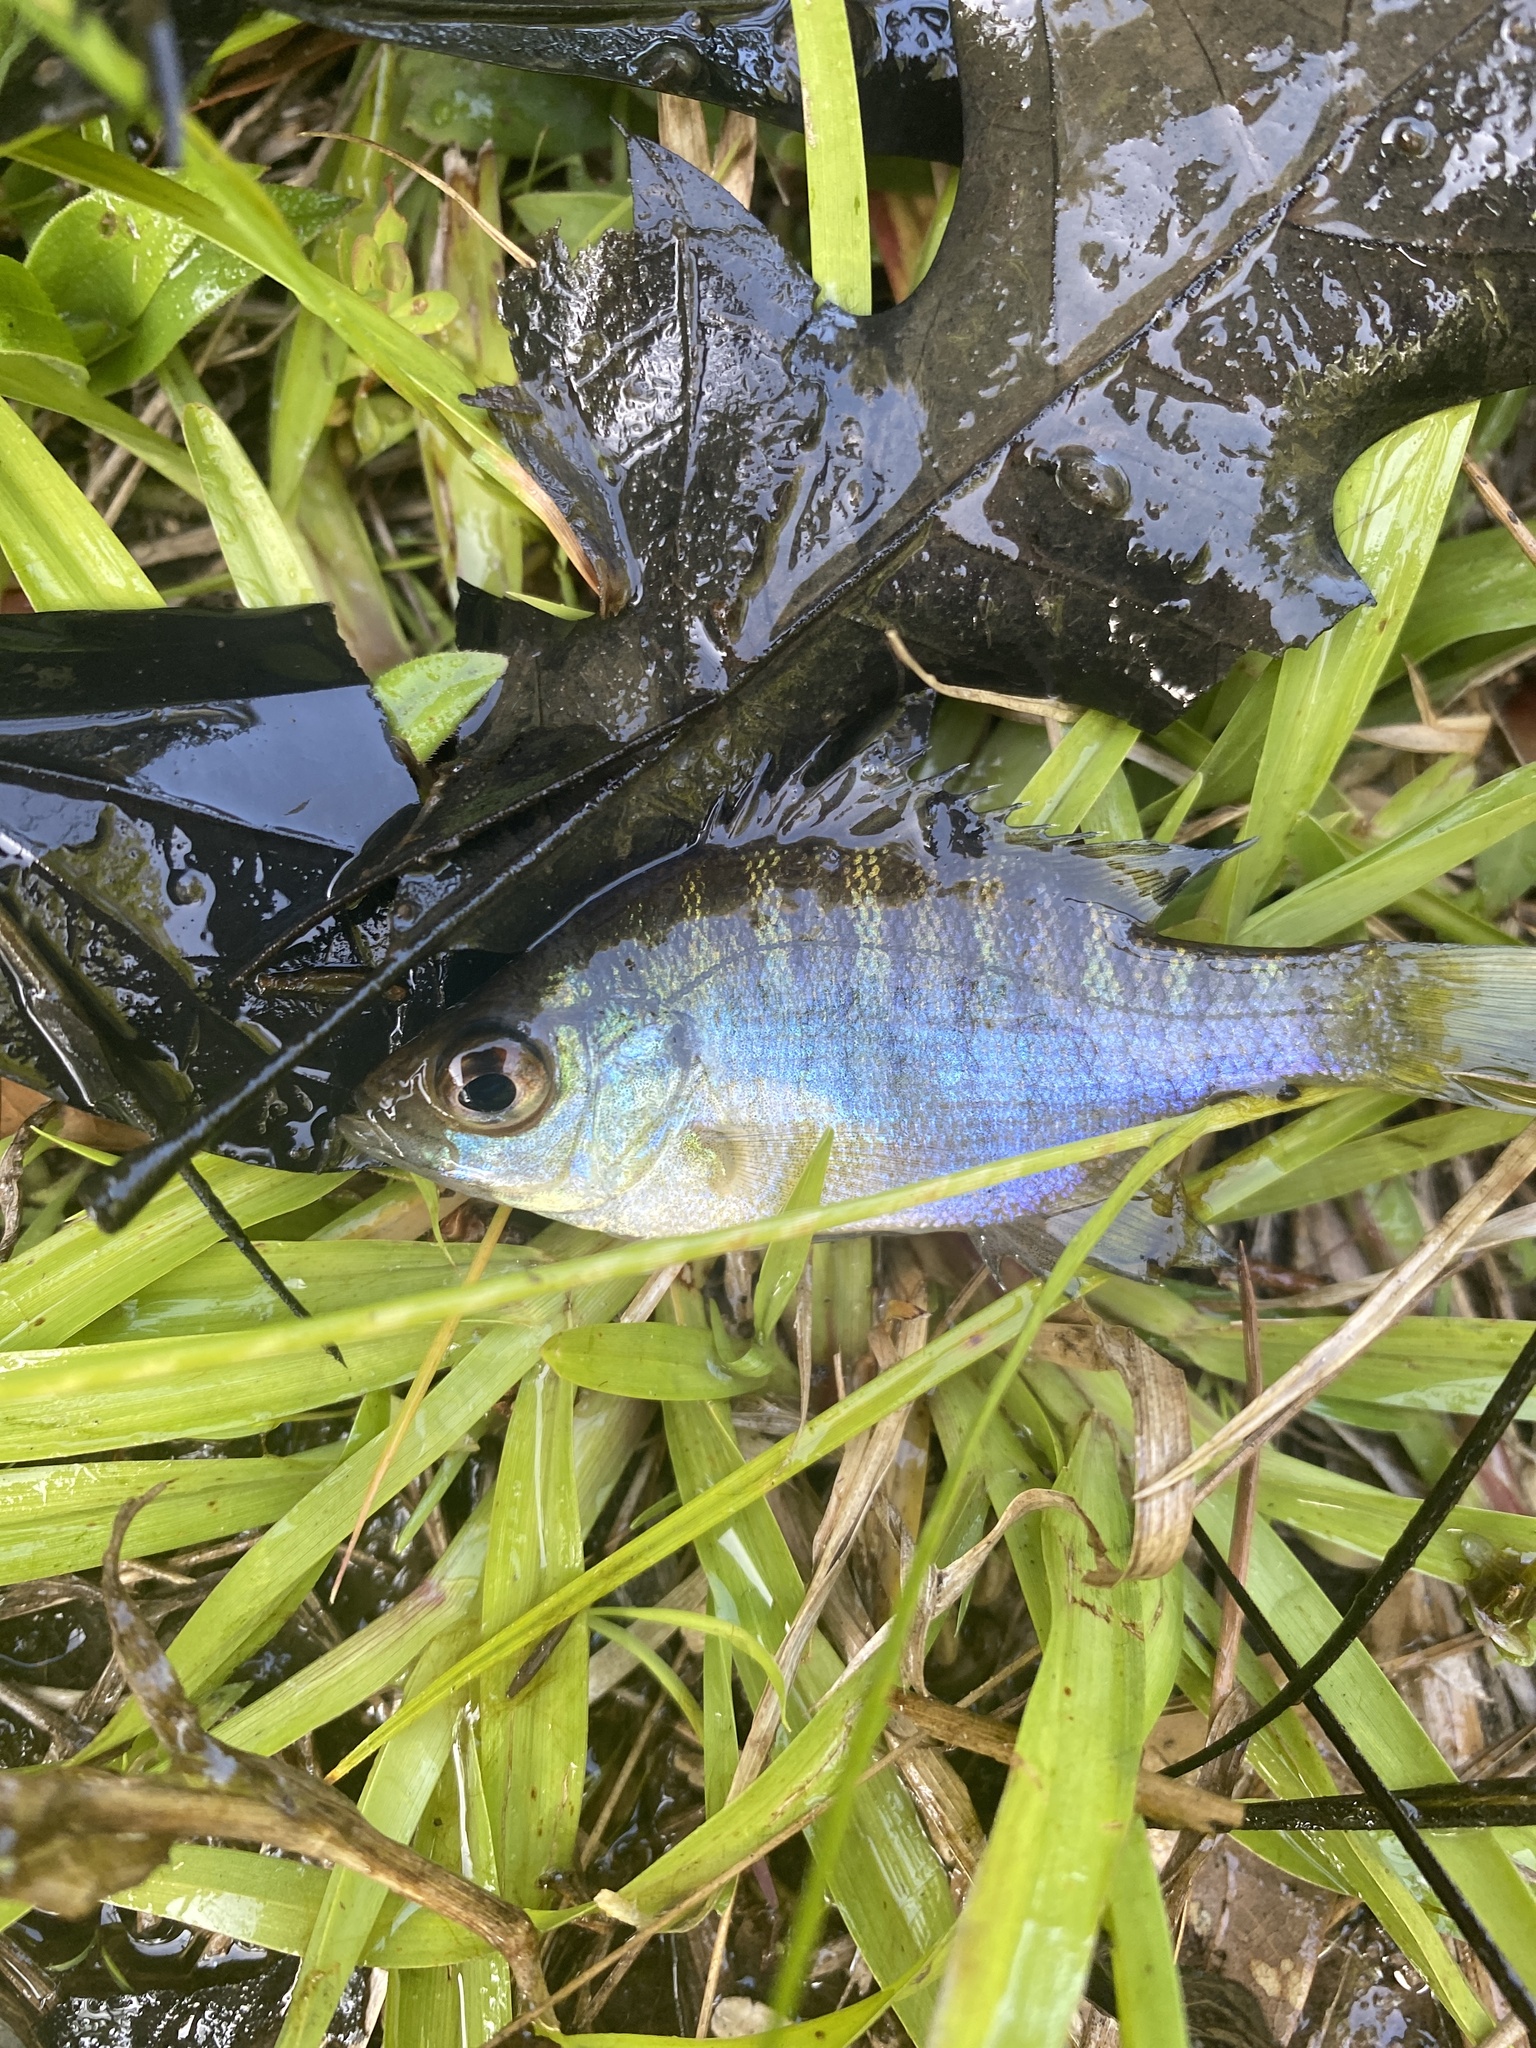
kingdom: Animalia
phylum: Chordata
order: Perciformes
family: Centrarchidae
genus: Lepomis
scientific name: Lepomis macrochirus
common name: Bluegill
